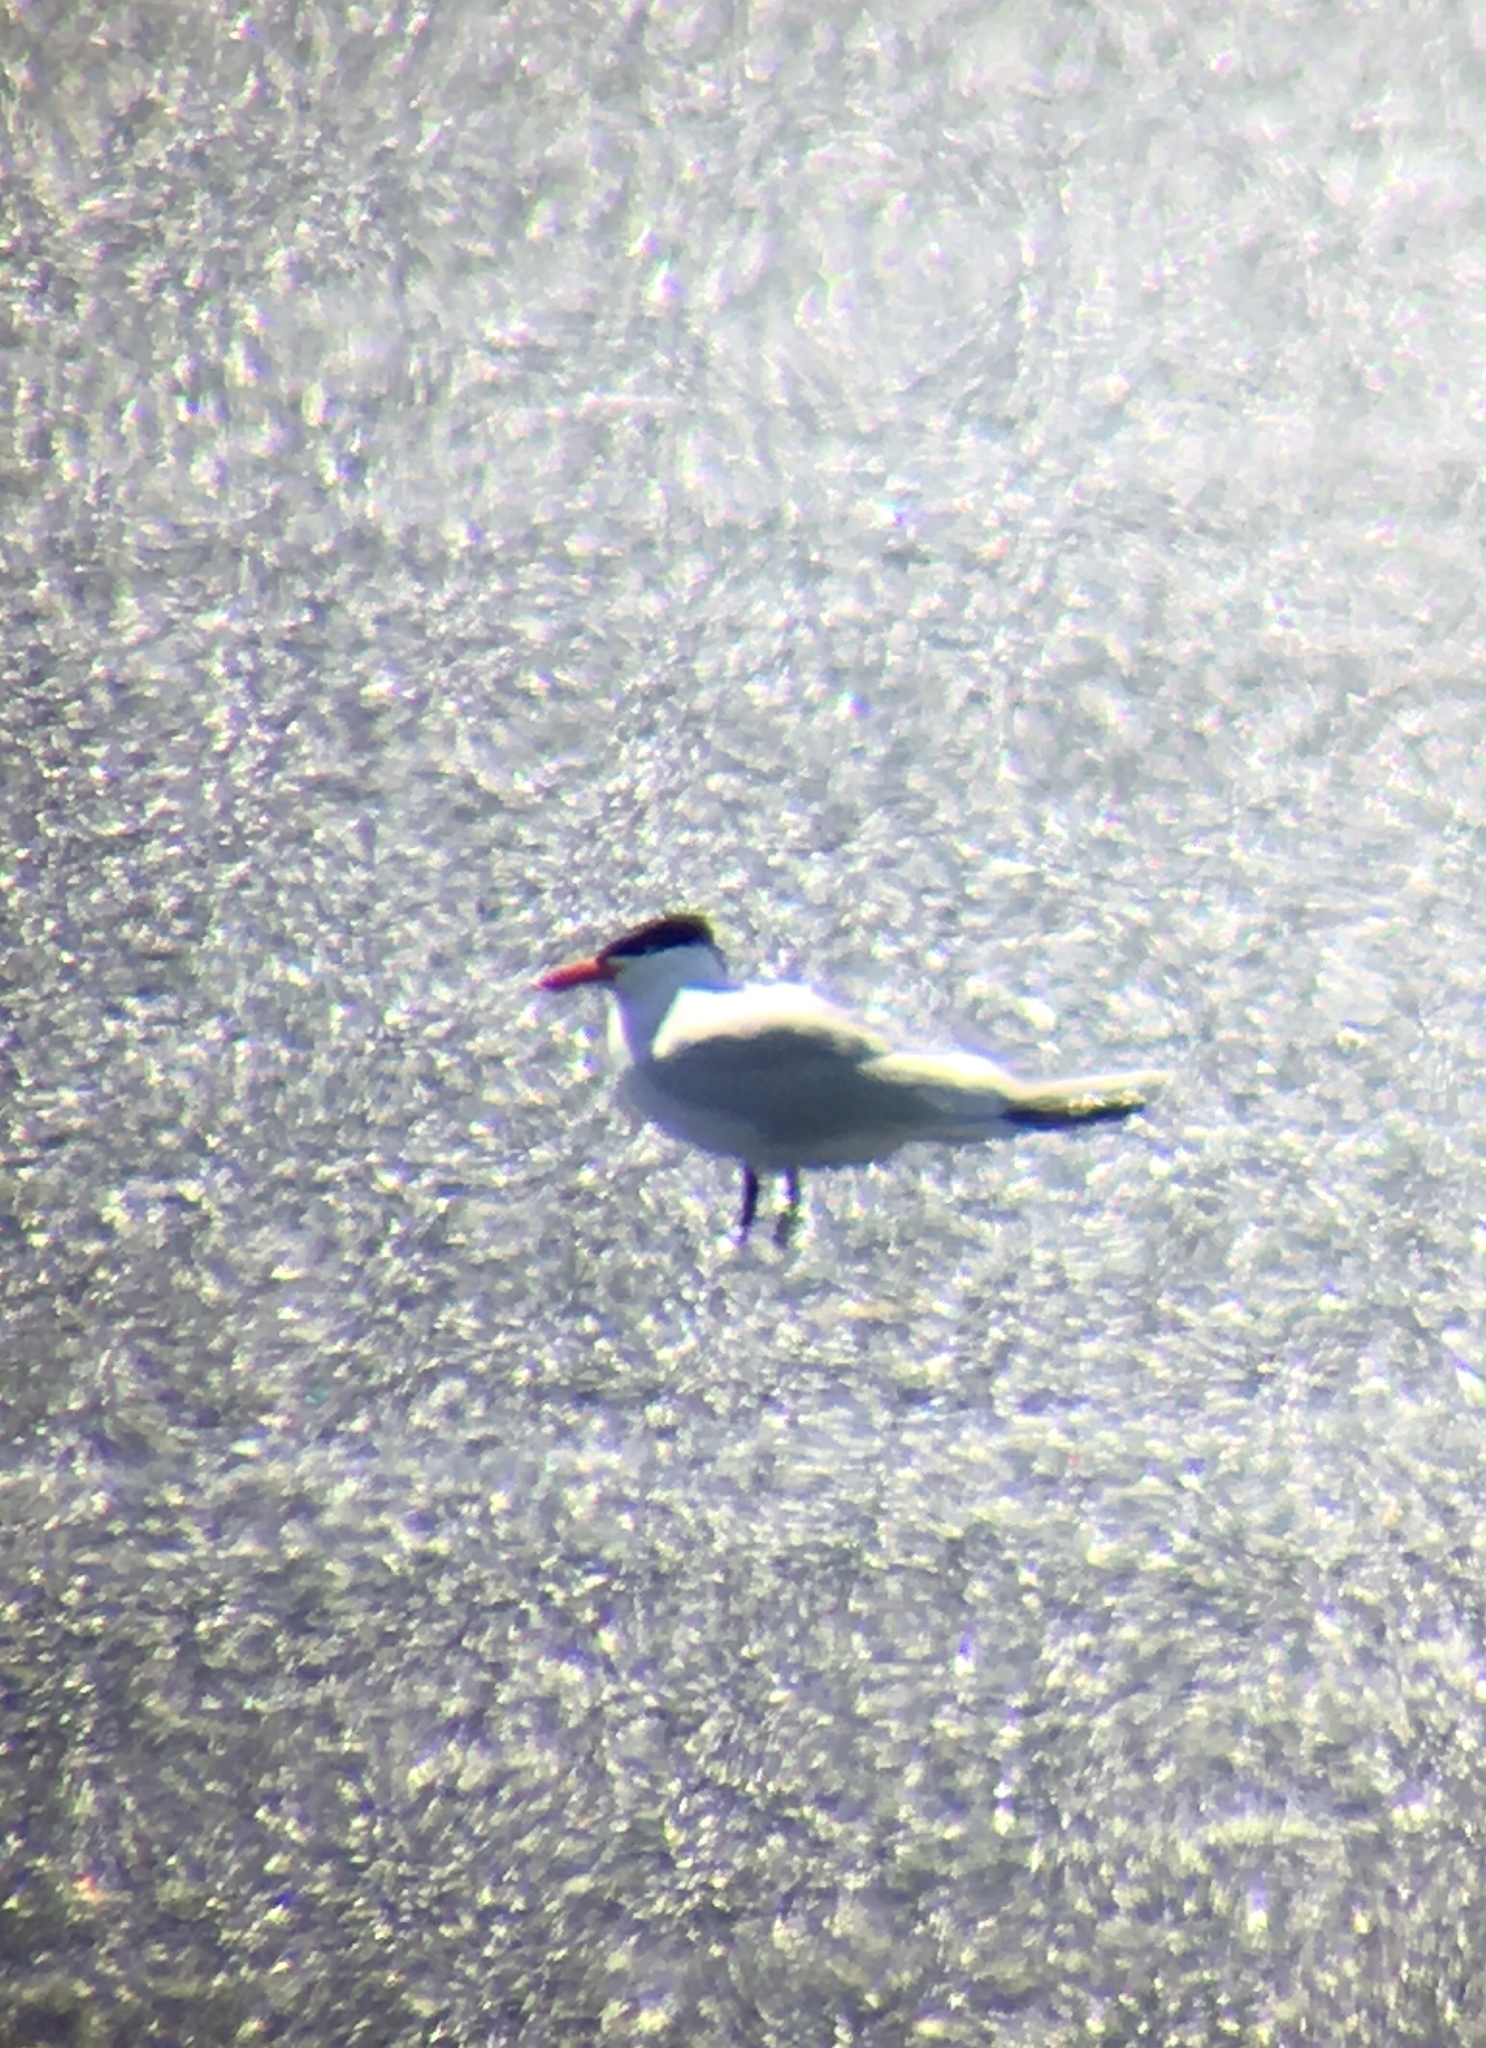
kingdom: Animalia
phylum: Chordata
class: Aves
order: Charadriiformes
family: Laridae
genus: Hydroprogne
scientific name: Hydroprogne caspia
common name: Caspian tern
